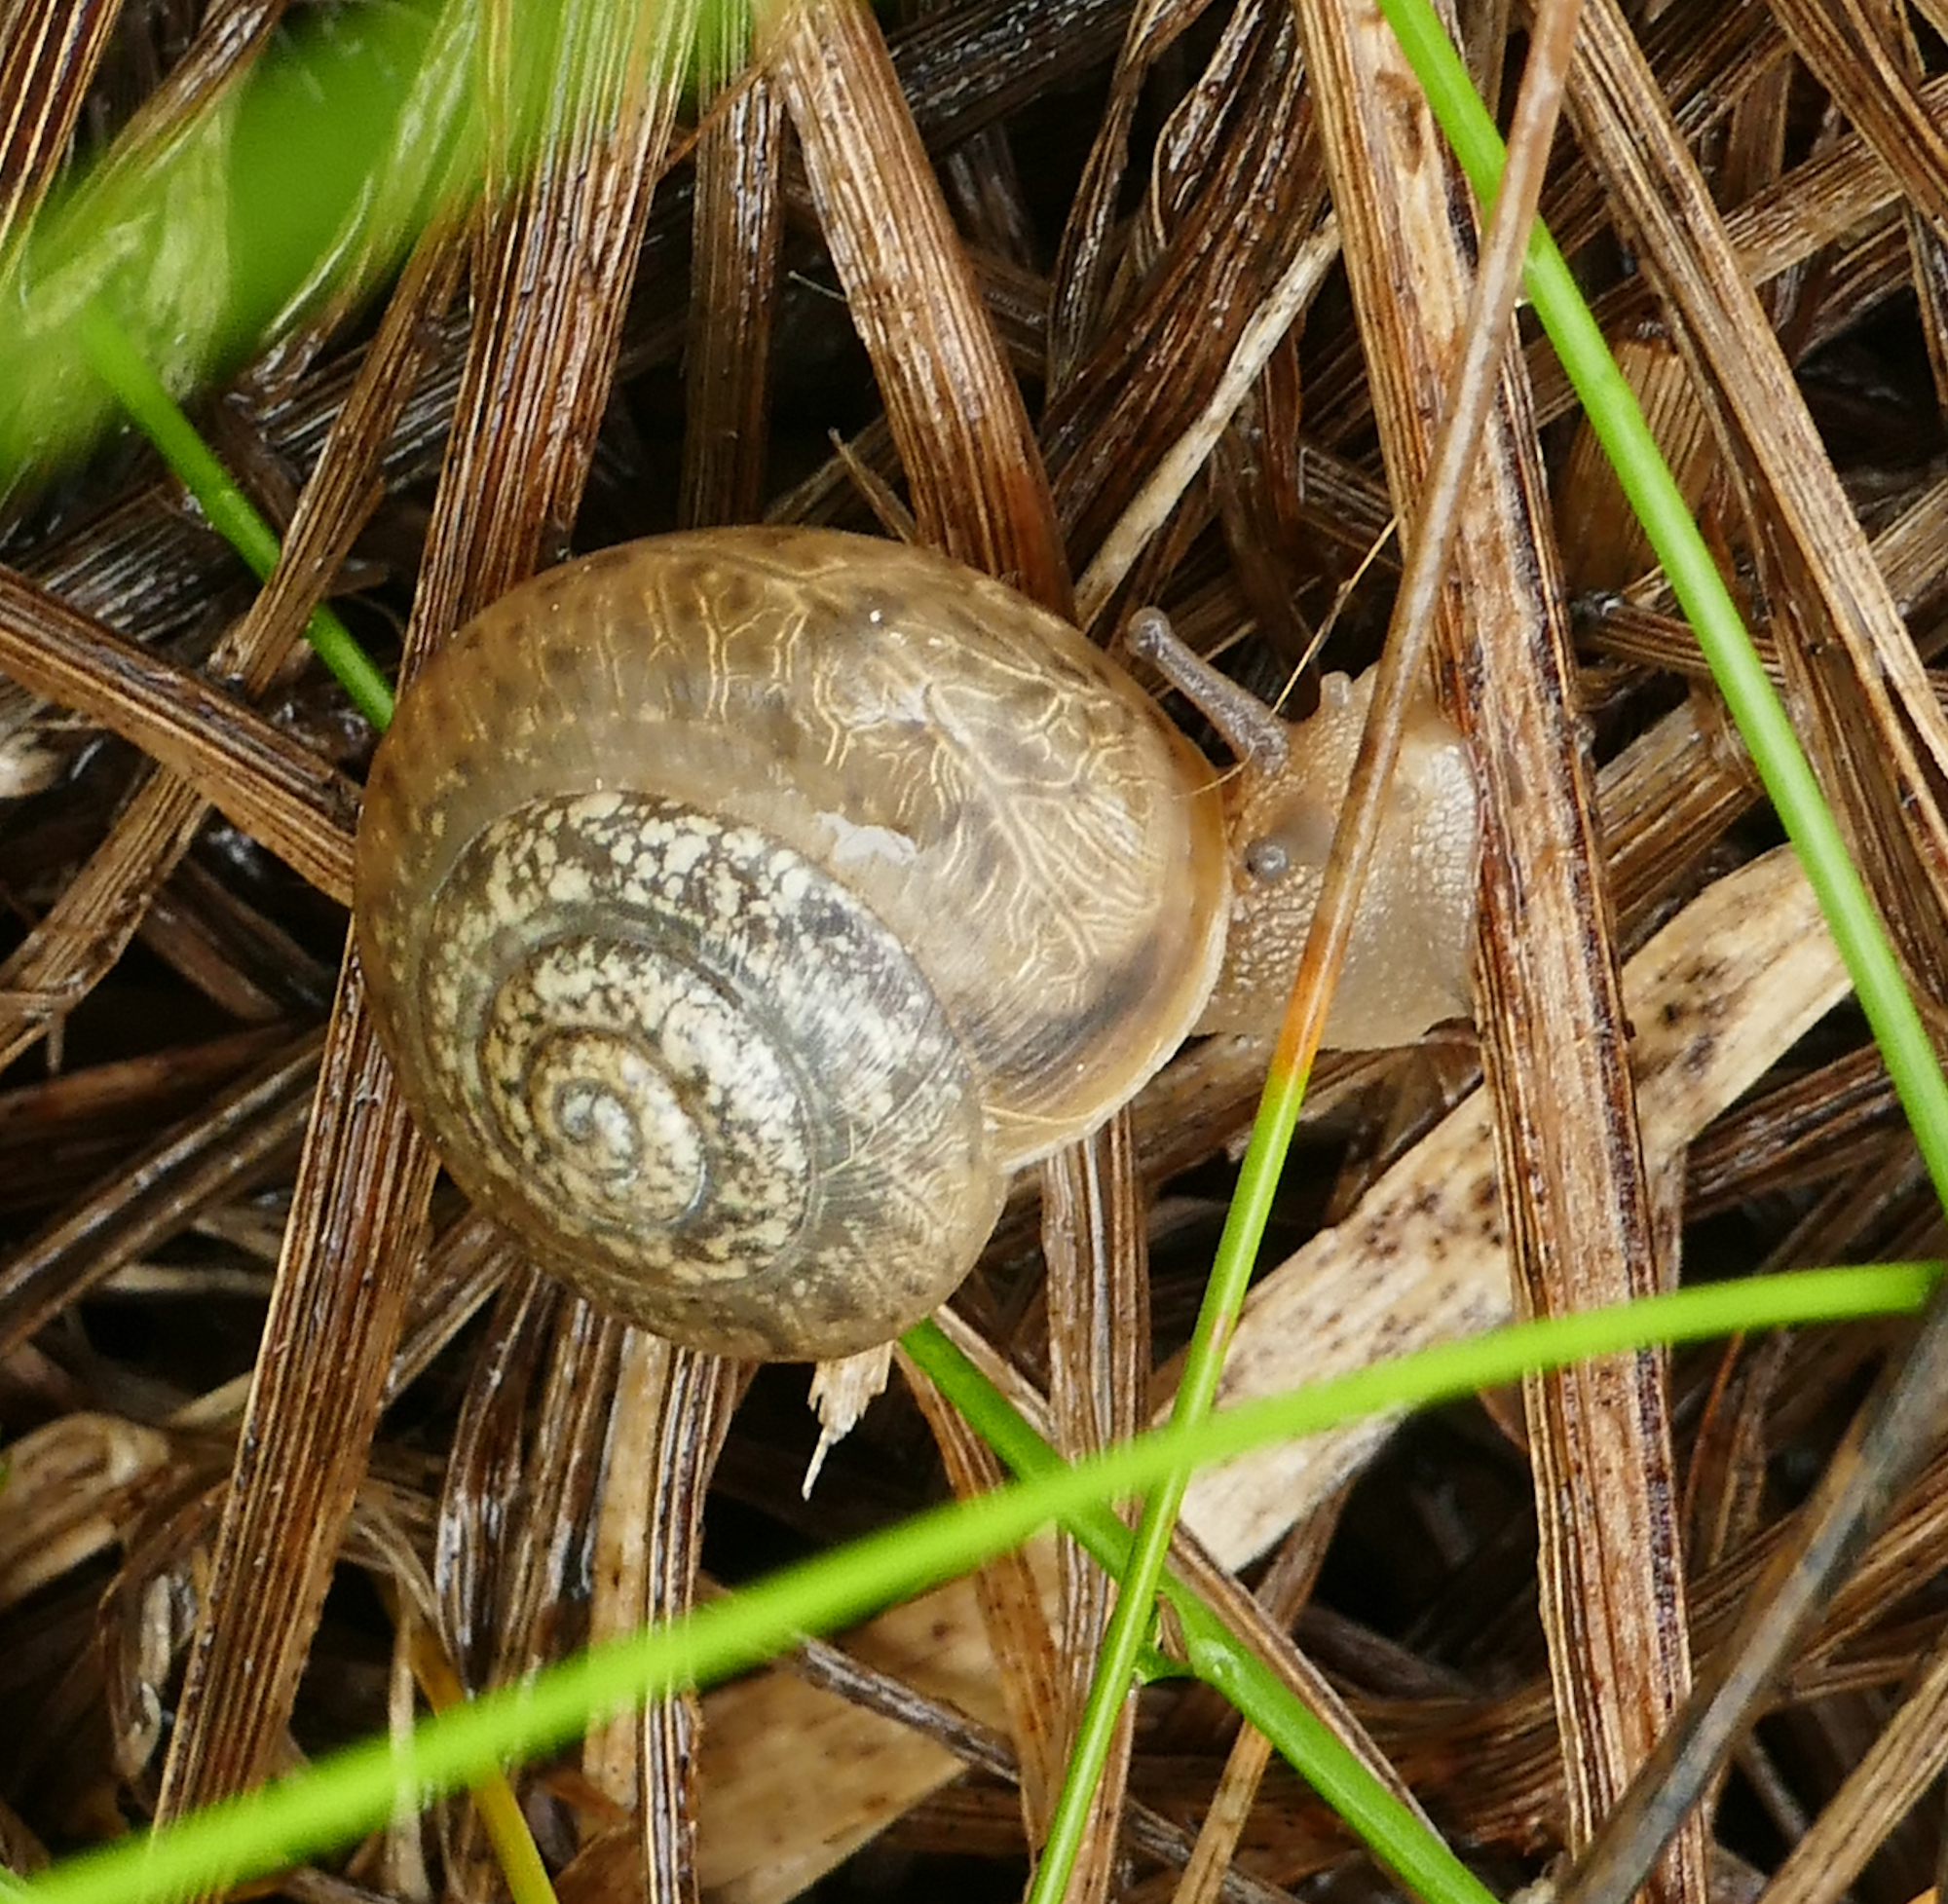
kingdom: Animalia
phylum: Mollusca
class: Gastropoda
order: Stylommatophora
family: Camaenidae
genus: Bradybaena
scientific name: Bradybaena similaris
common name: Asian trampsnail
